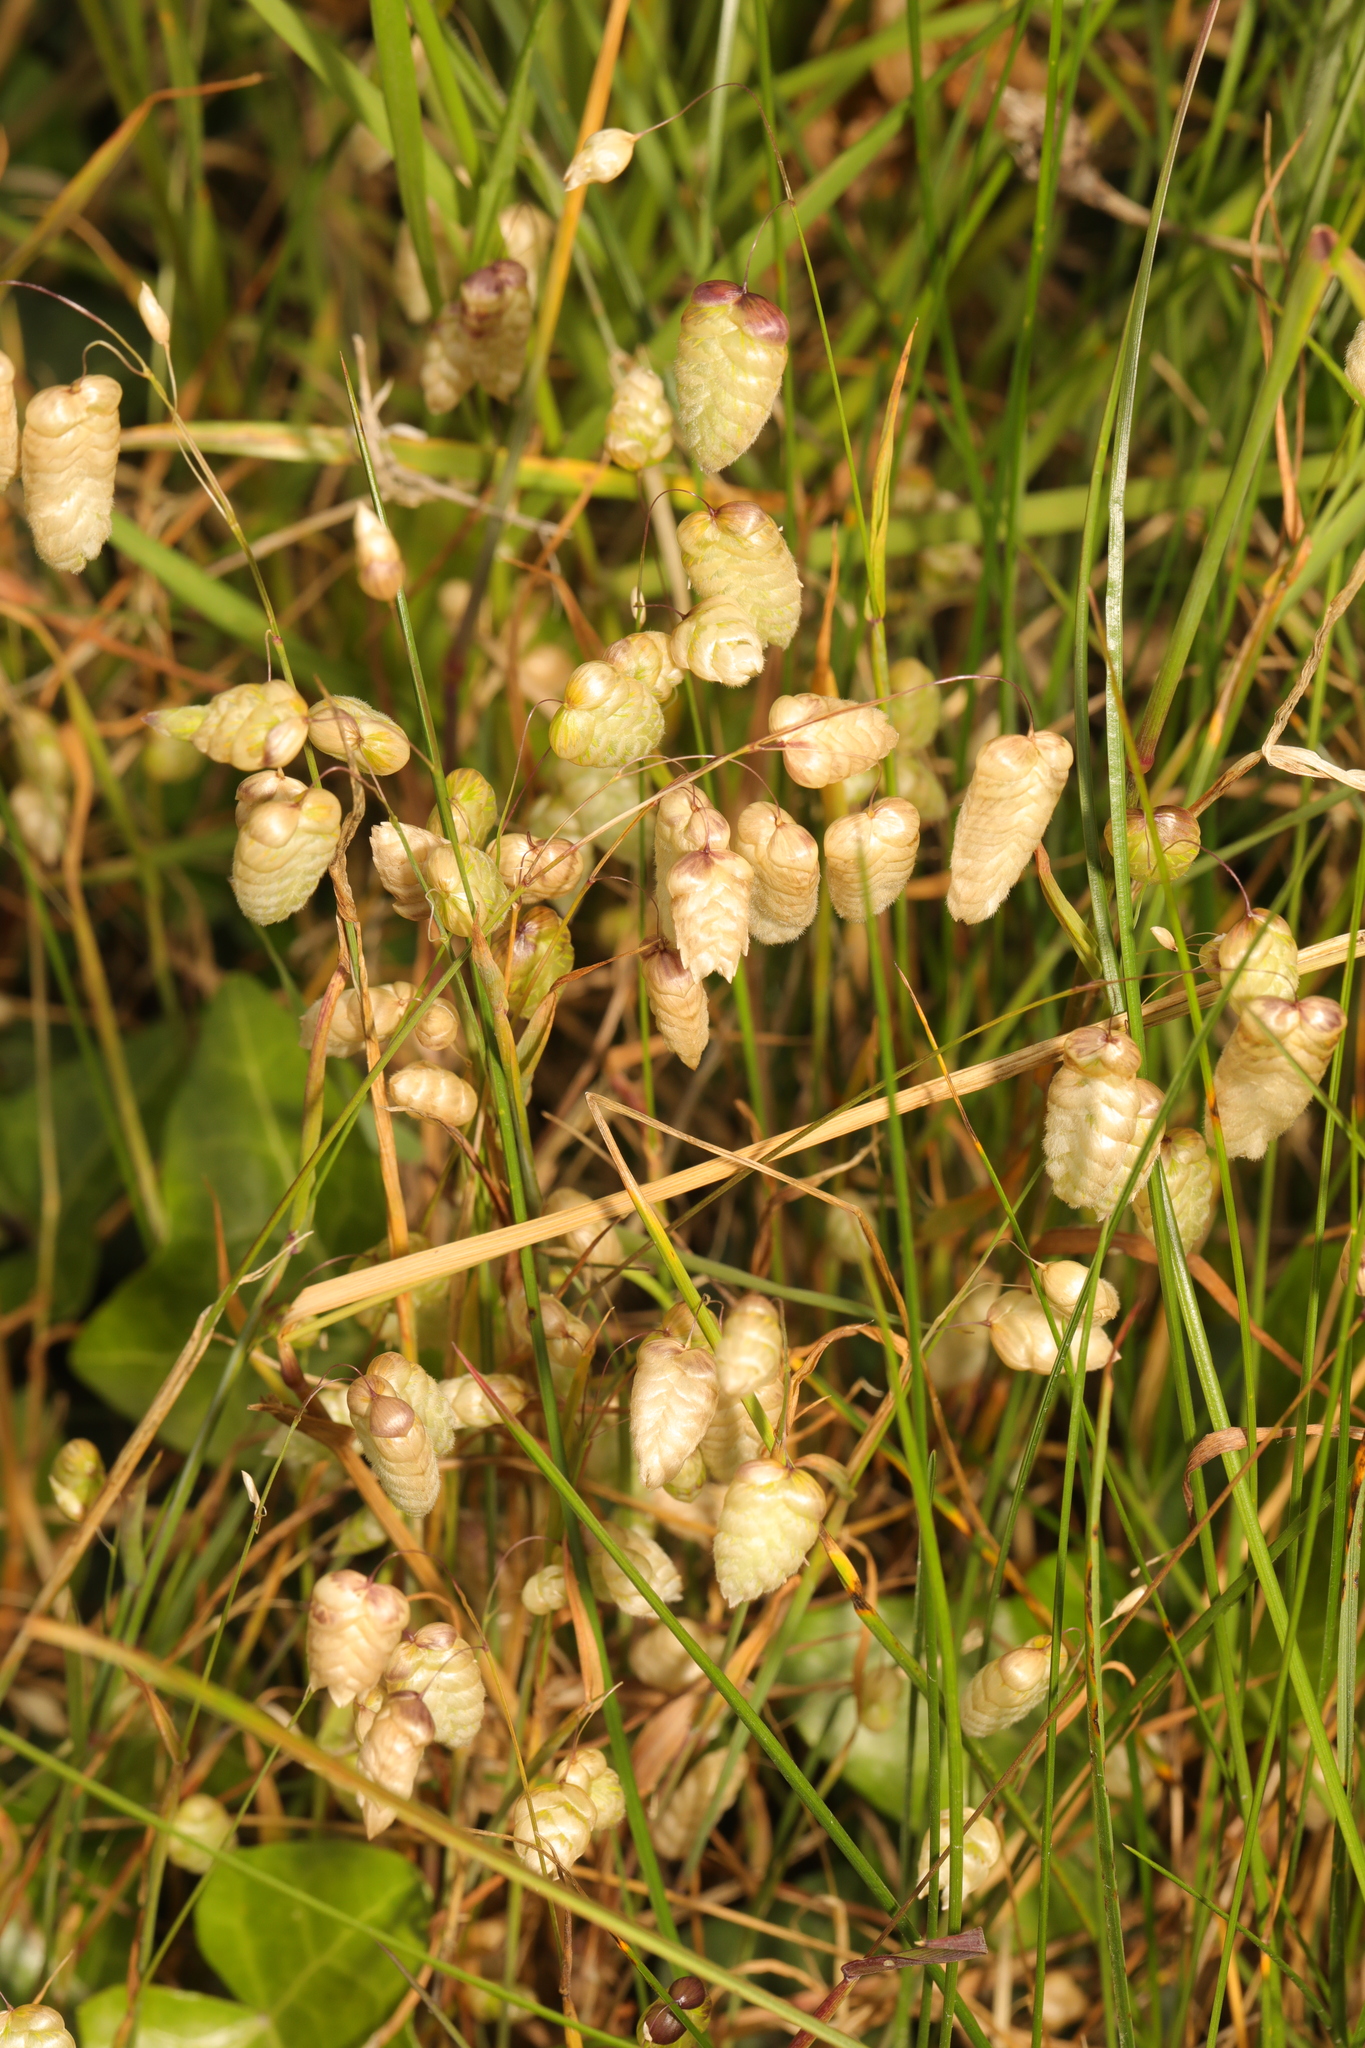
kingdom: Plantae
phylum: Tracheophyta
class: Liliopsida
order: Poales
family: Poaceae
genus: Briza
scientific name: Briza maxima
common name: Big quakinggrass
